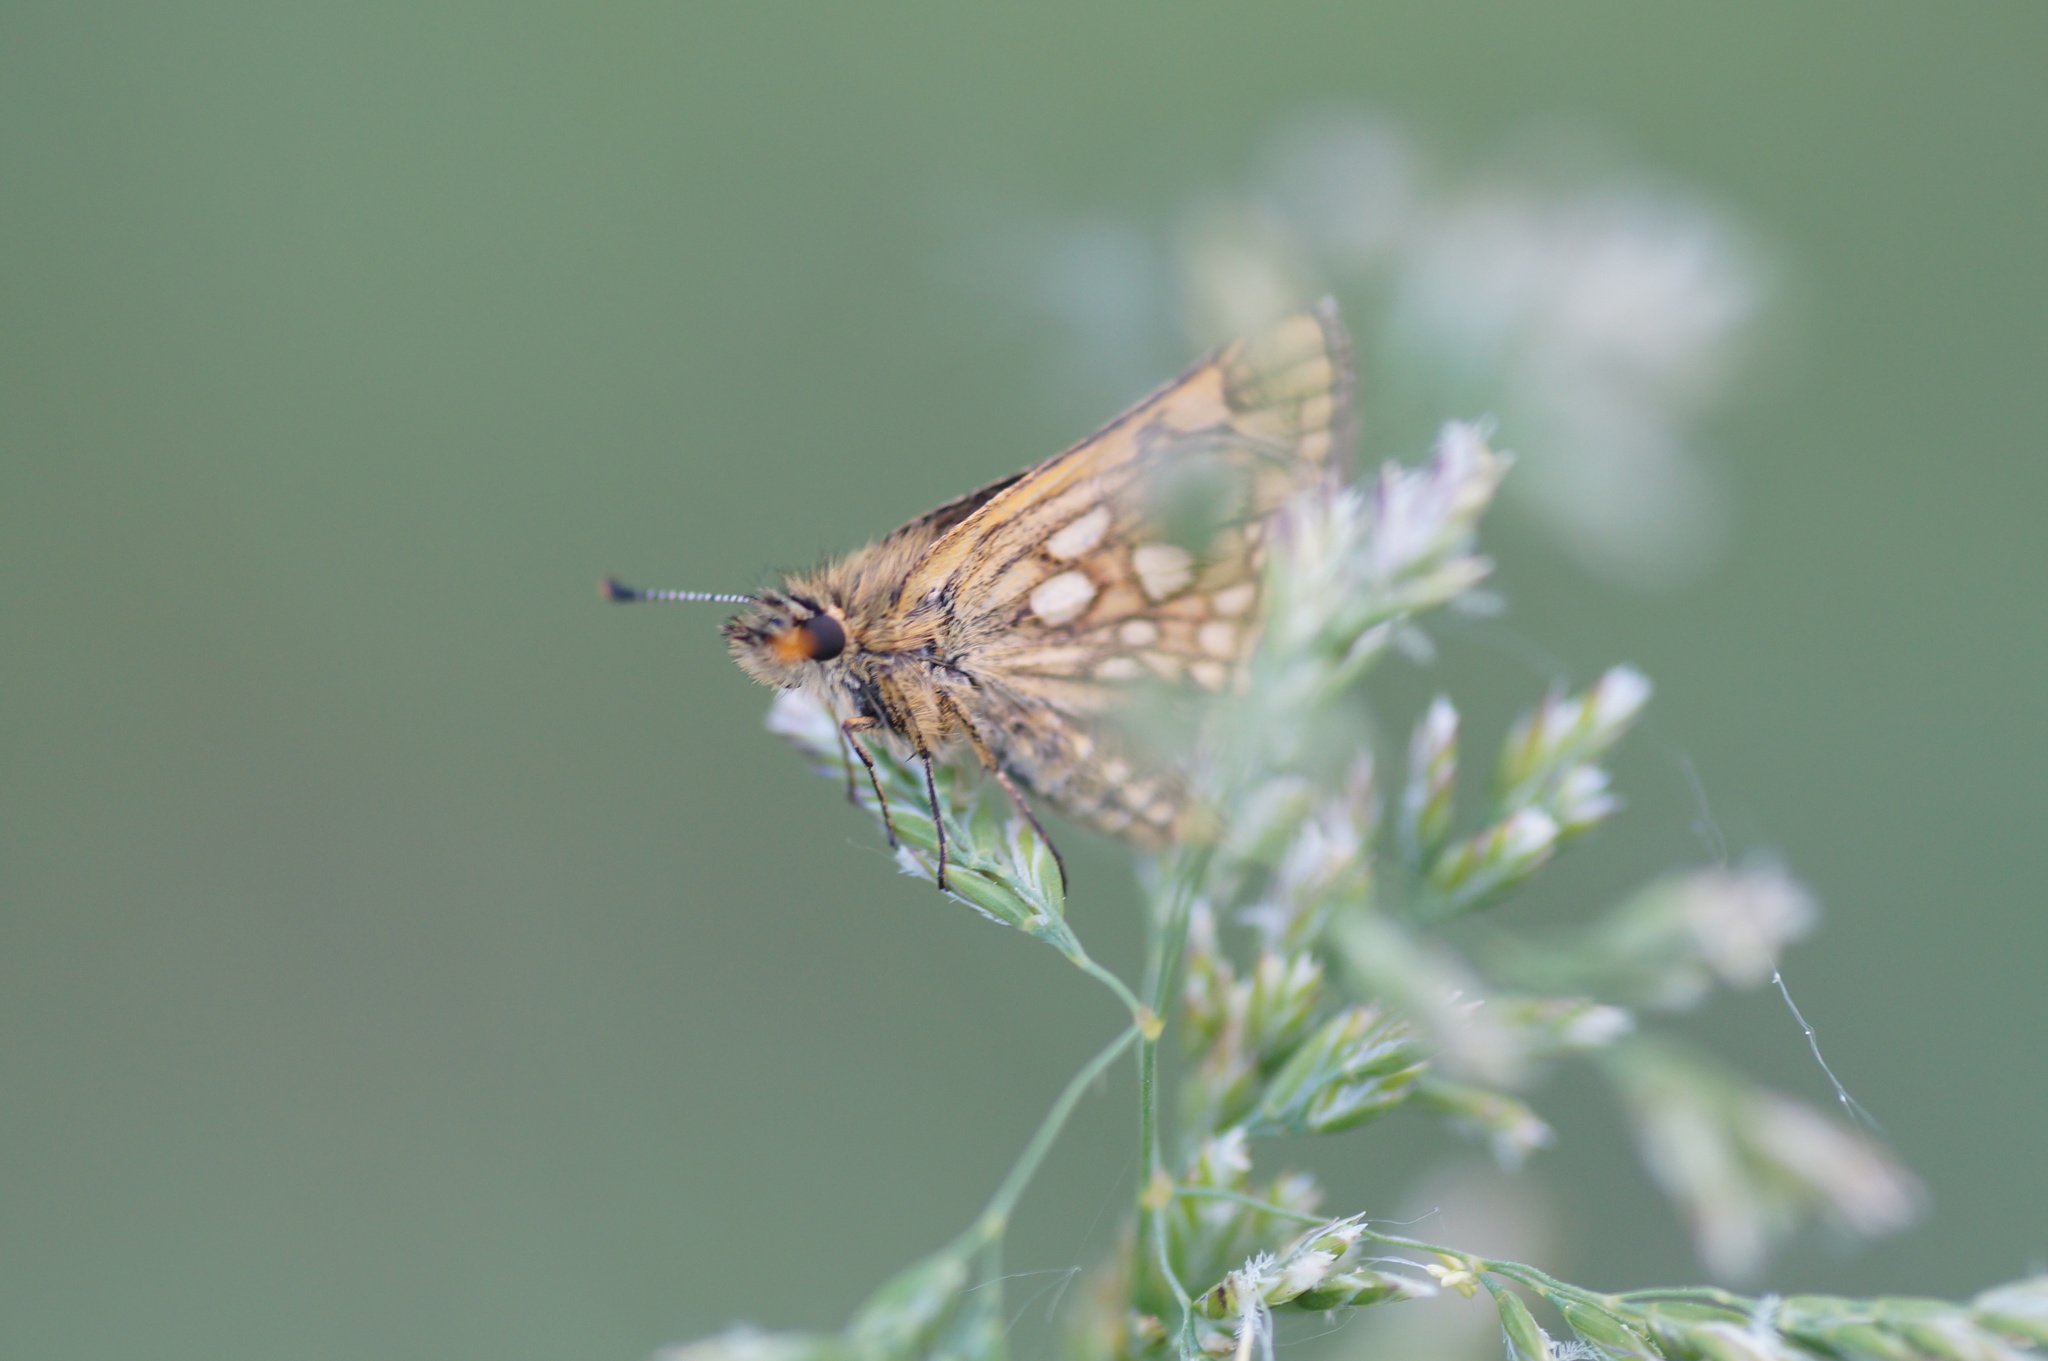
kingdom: Animalia
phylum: Arthropoda
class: Insecta
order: Lepidoptera
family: Hesperiidae
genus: Carterocephalus
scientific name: Carterocephalus palaemon
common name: Chequered skipper
